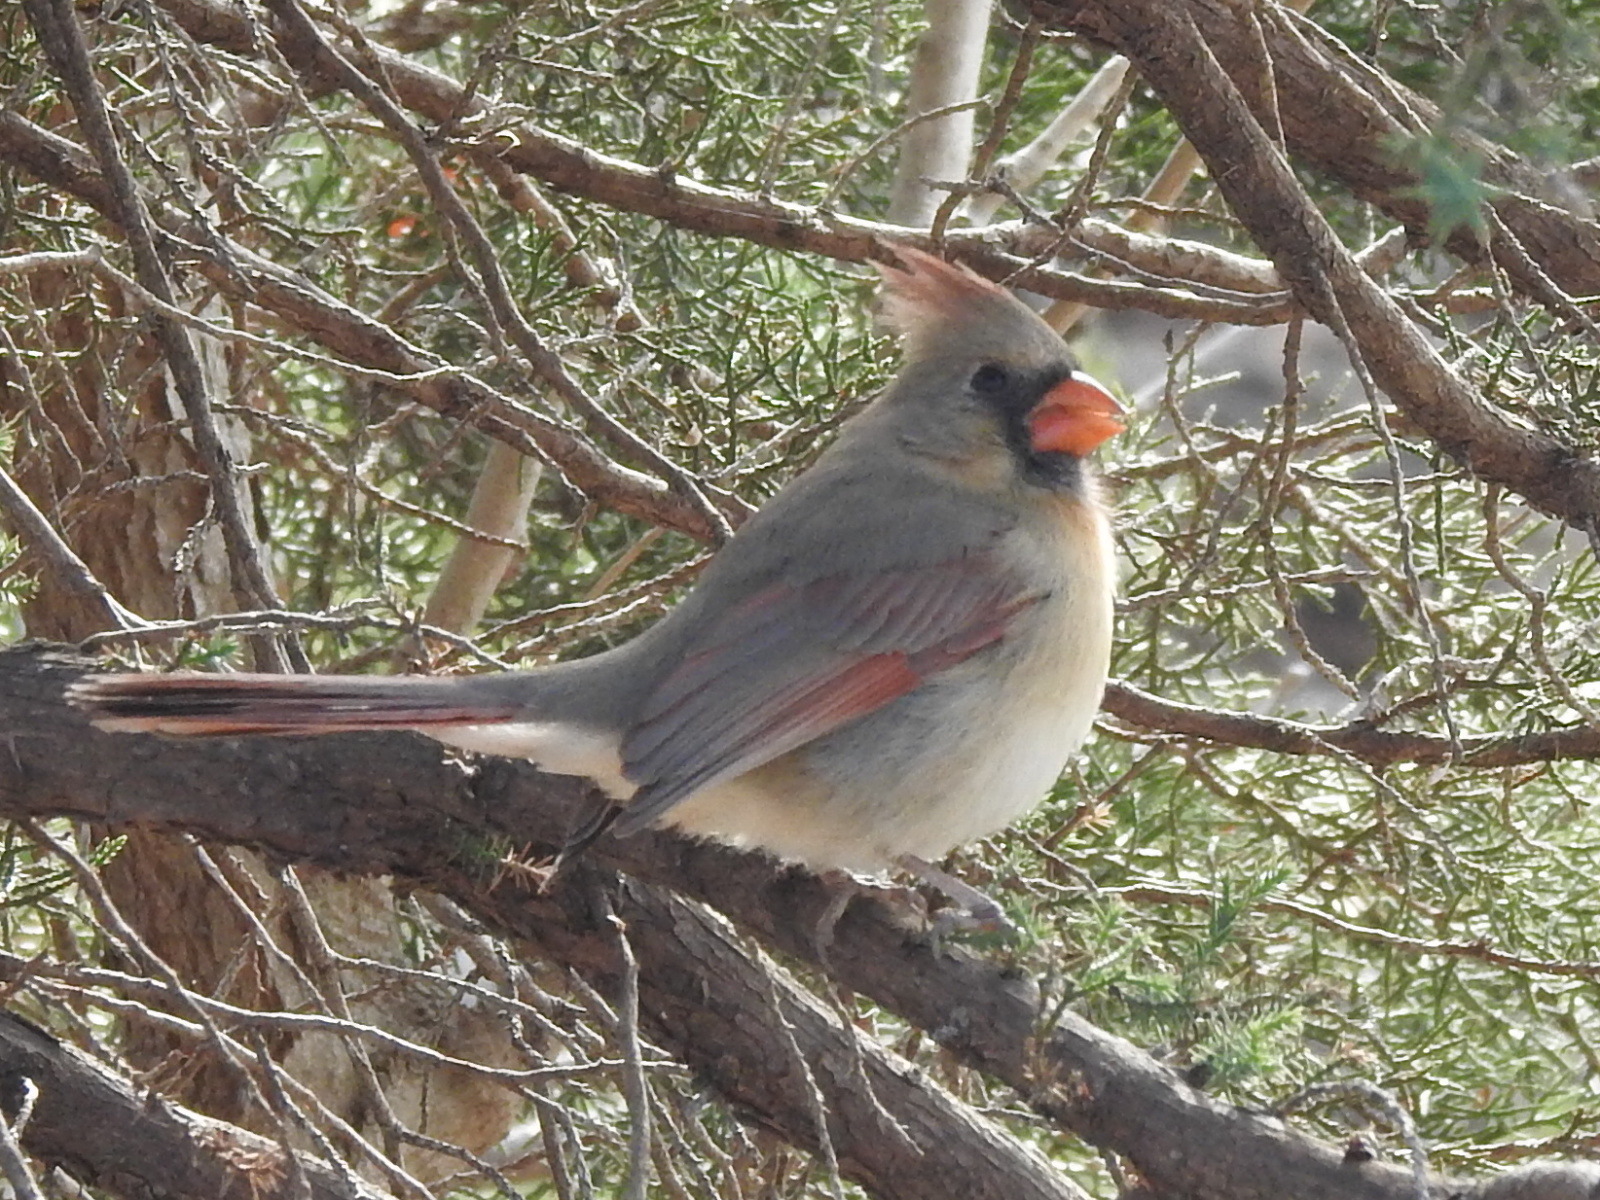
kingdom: Animalia
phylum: Chordata
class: Aves
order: Passeriformes
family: Cardinalidae
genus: Cardinalis
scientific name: Cardinalis cardinalis
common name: Northern cardinal
